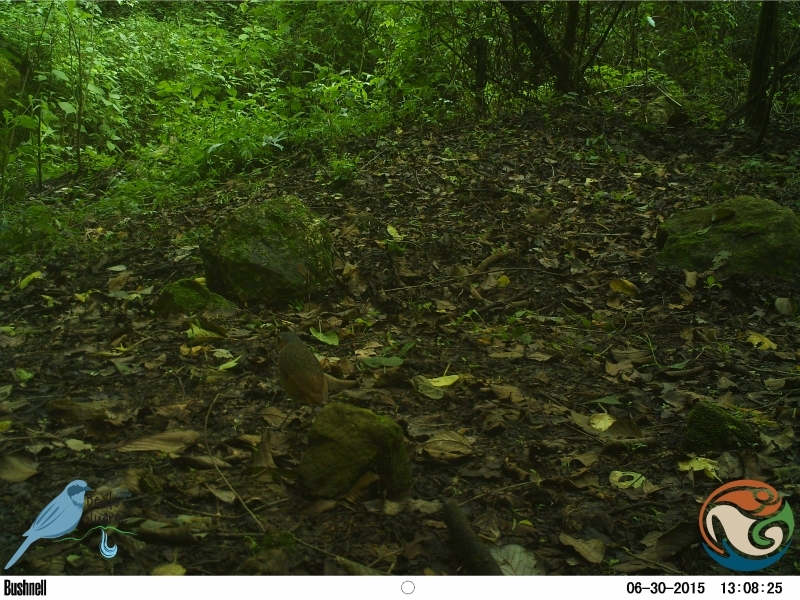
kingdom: Animalia
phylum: Chordata
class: Aves
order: Passeriformes
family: Grallariidae
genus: Grallaria
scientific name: Grallaria guatimalensis
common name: Scaled antpitta
